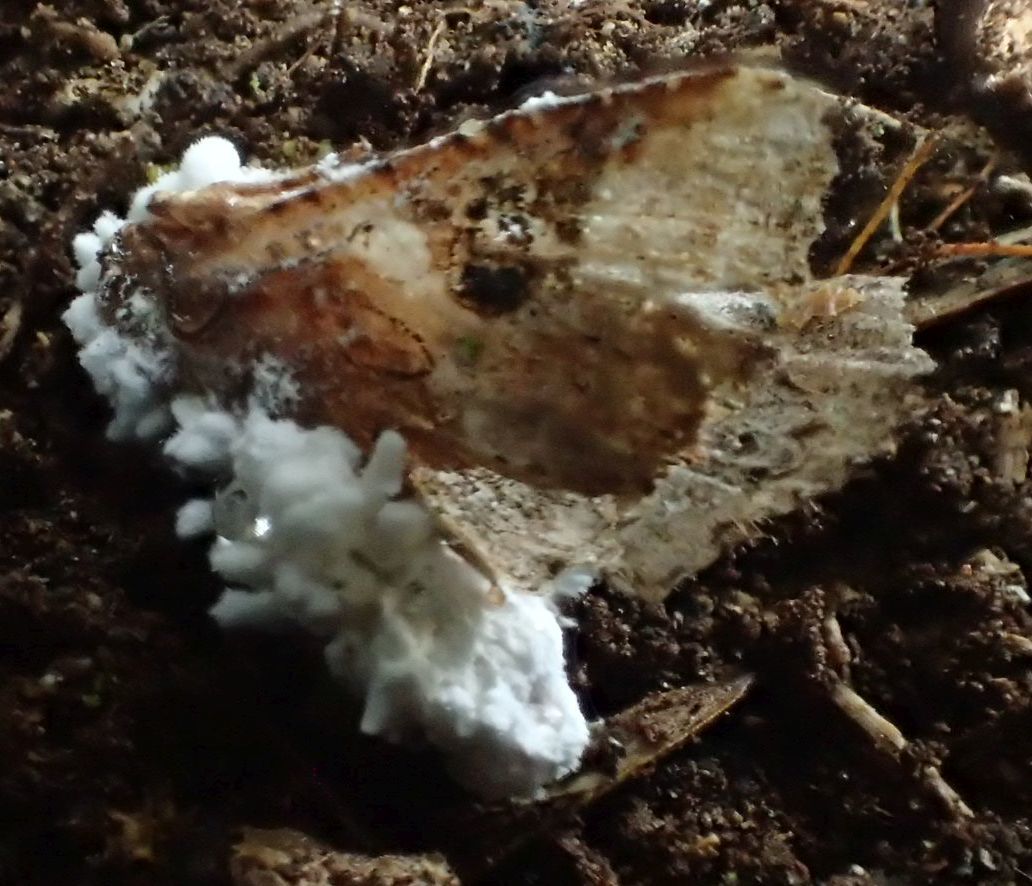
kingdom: Fungi
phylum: Ascomycota
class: Sordariomycetes
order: Hypocreales
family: Cordycipitaceae
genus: Beauveria
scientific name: Beauveria bassiana
